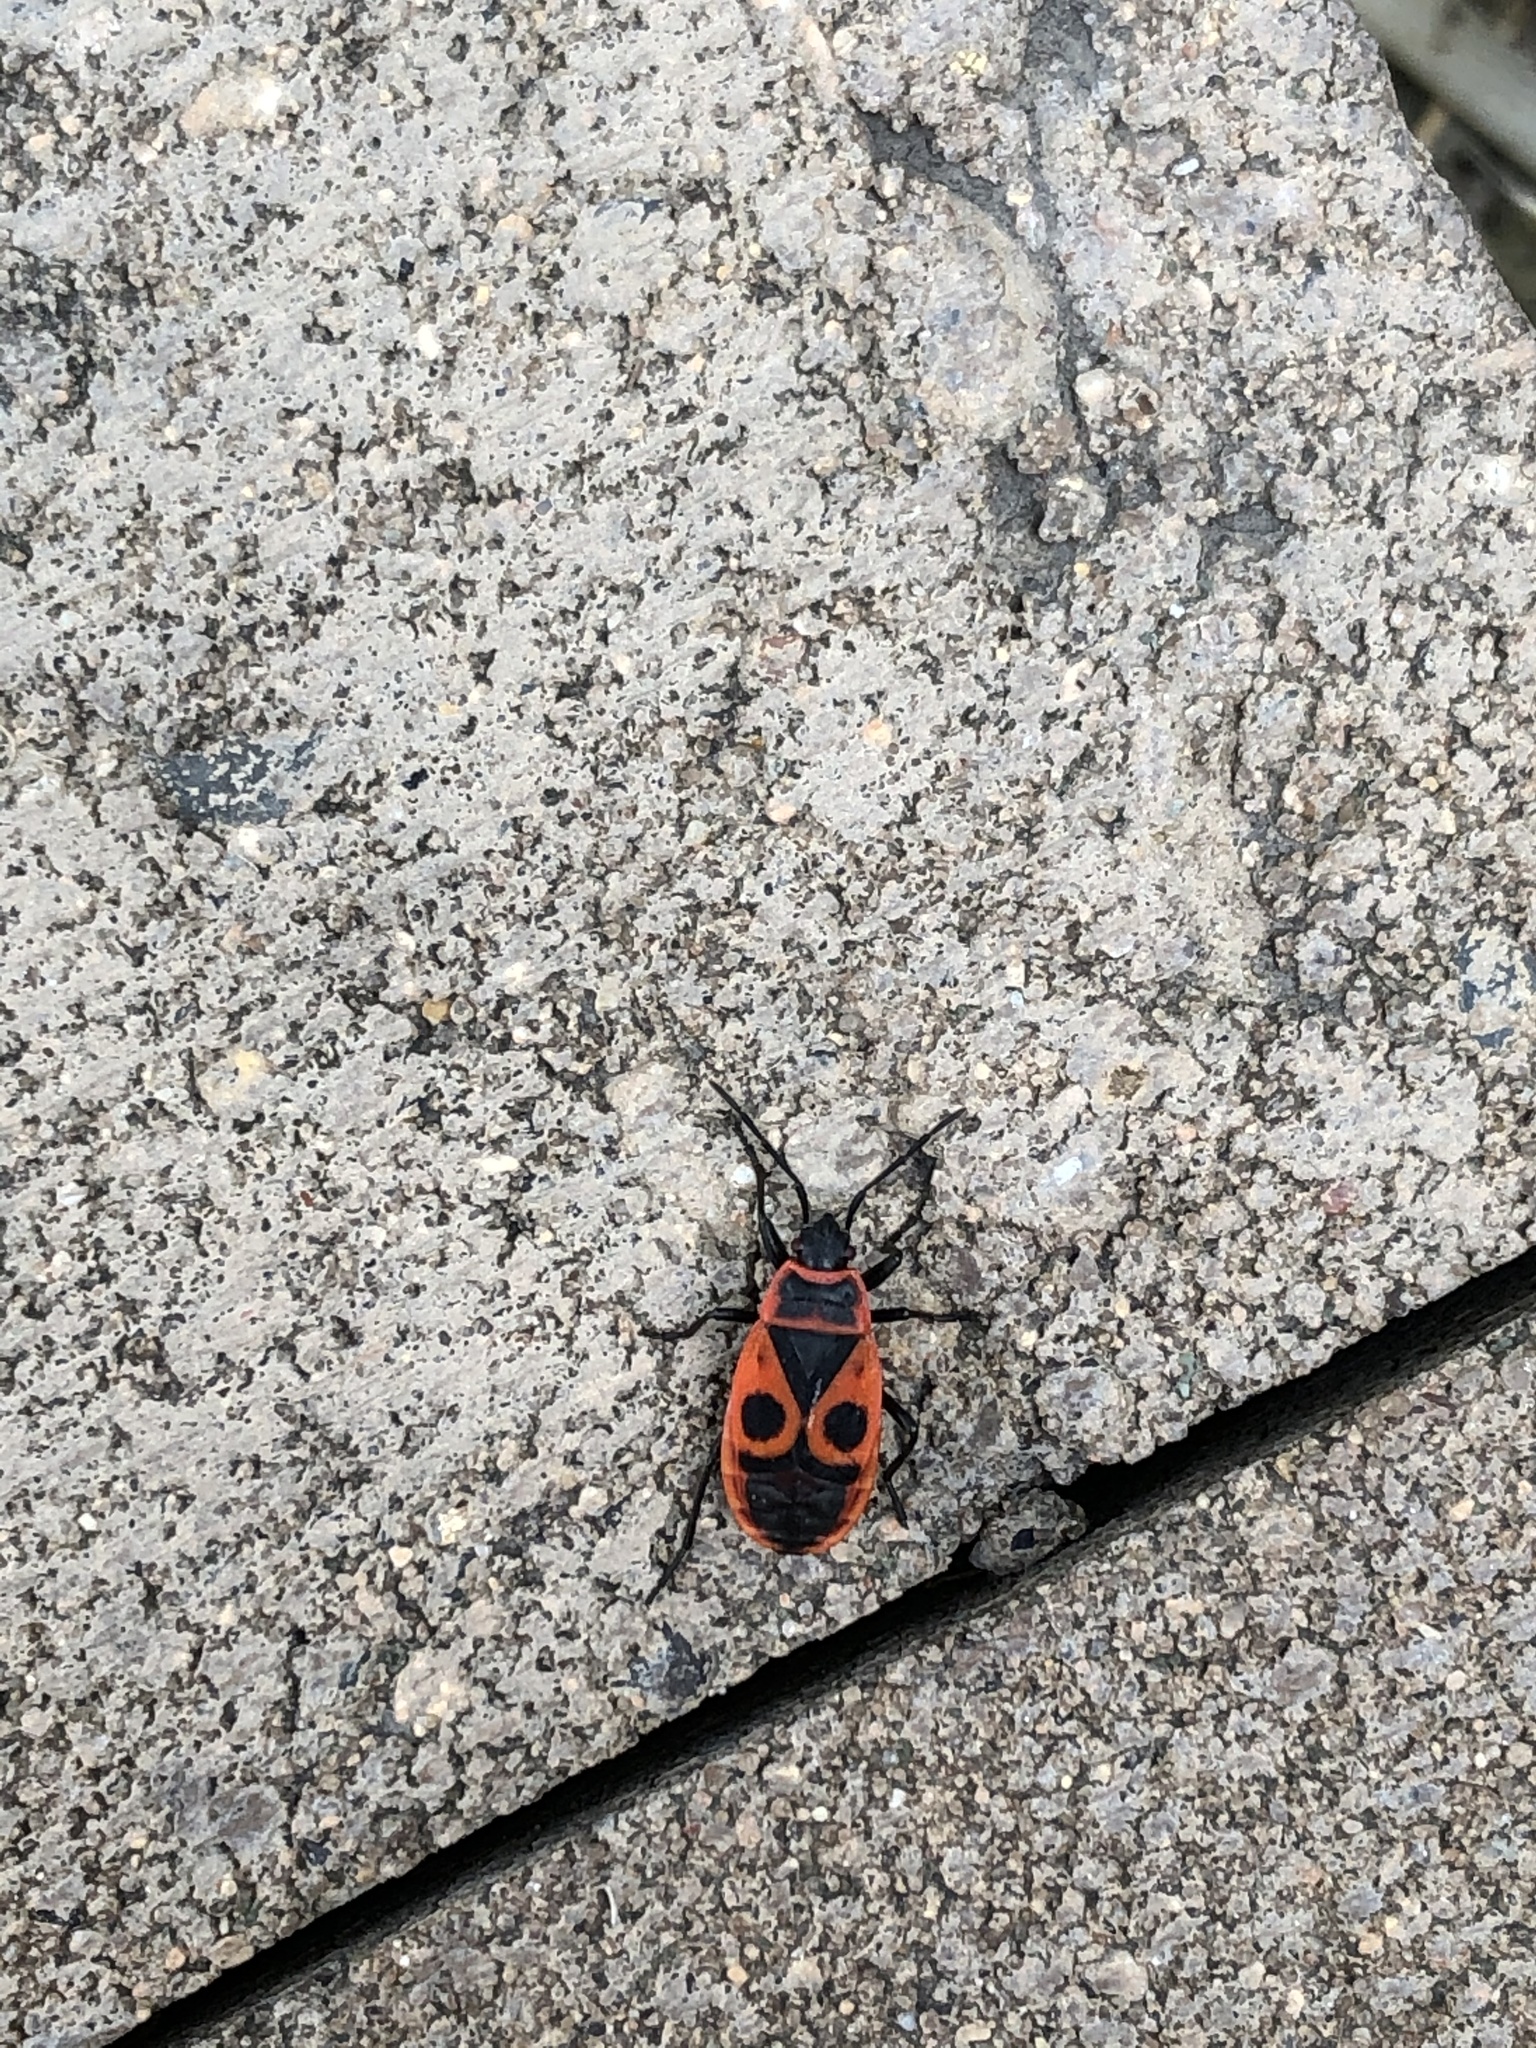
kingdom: Animalia
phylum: Arthropoda
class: Insecta
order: Hemiptera
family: Pyrrhocoridae
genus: Pyrrhocoris
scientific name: Pyrrhocoris apterus
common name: Firebug
